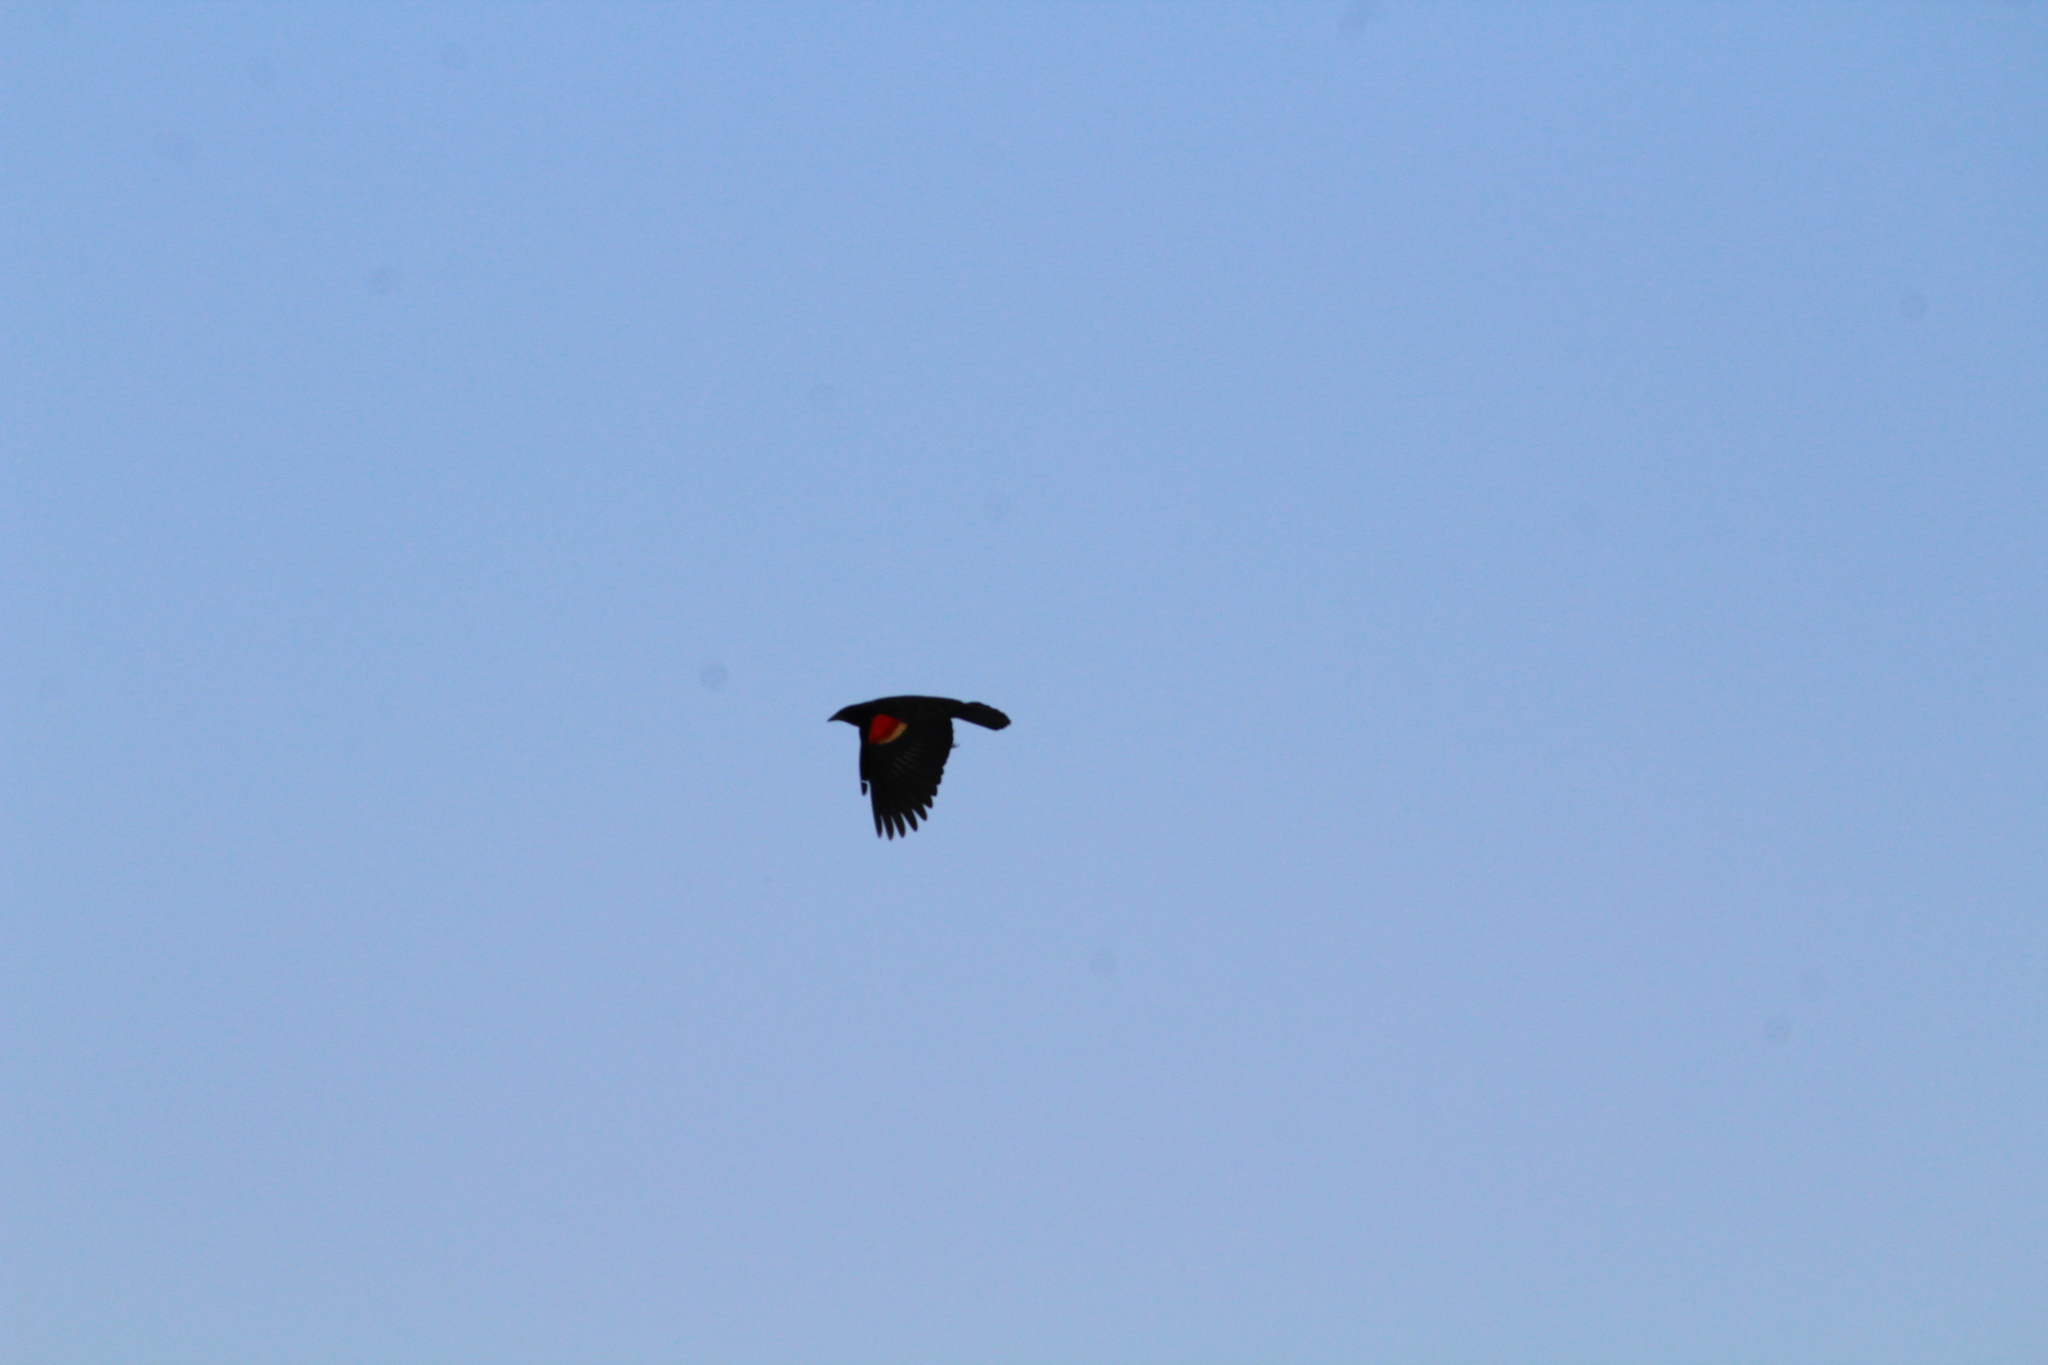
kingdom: Animalia
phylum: Chordata
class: Aves
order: Passeriformes
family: Icteridae
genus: Agelaius
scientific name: Agelaius phoeniceus
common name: Red-winged blackbird
